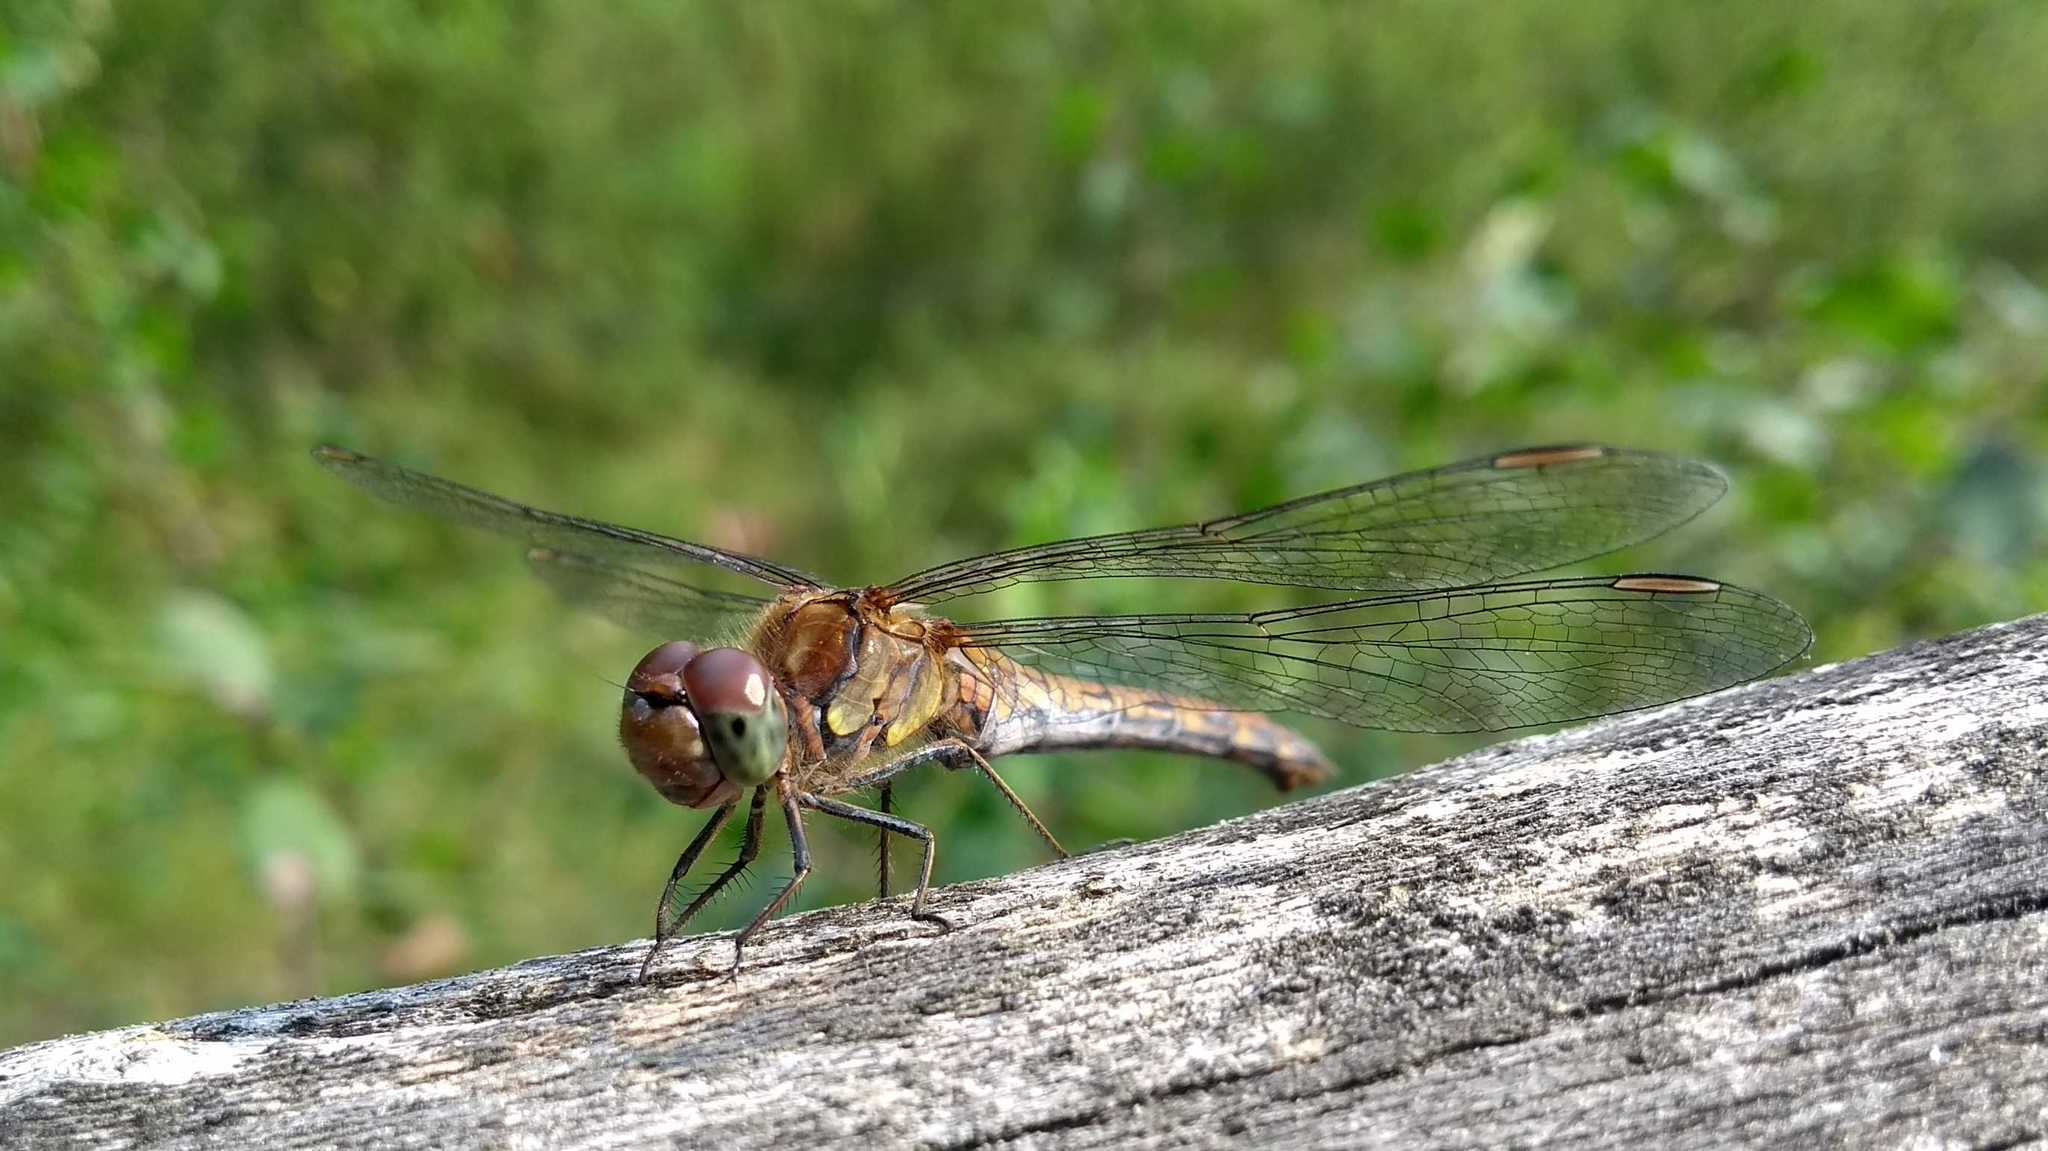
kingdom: Animalia
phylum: Arthropoda
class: Insecta
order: Odonata
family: Libellulidae
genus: Sympetrum
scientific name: Sympetrum striolatum
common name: Common darter
